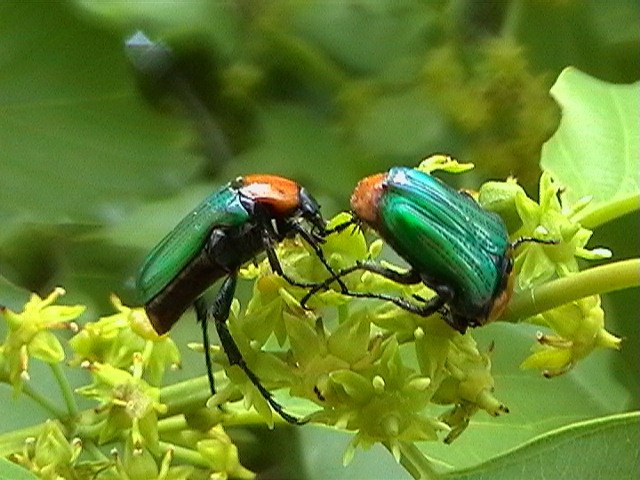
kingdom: Animalia
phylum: Arthropoda
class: Insecta
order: Coleoptera
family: Scarabaeidae
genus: Leucocelis
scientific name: Leucocelis amethystina
